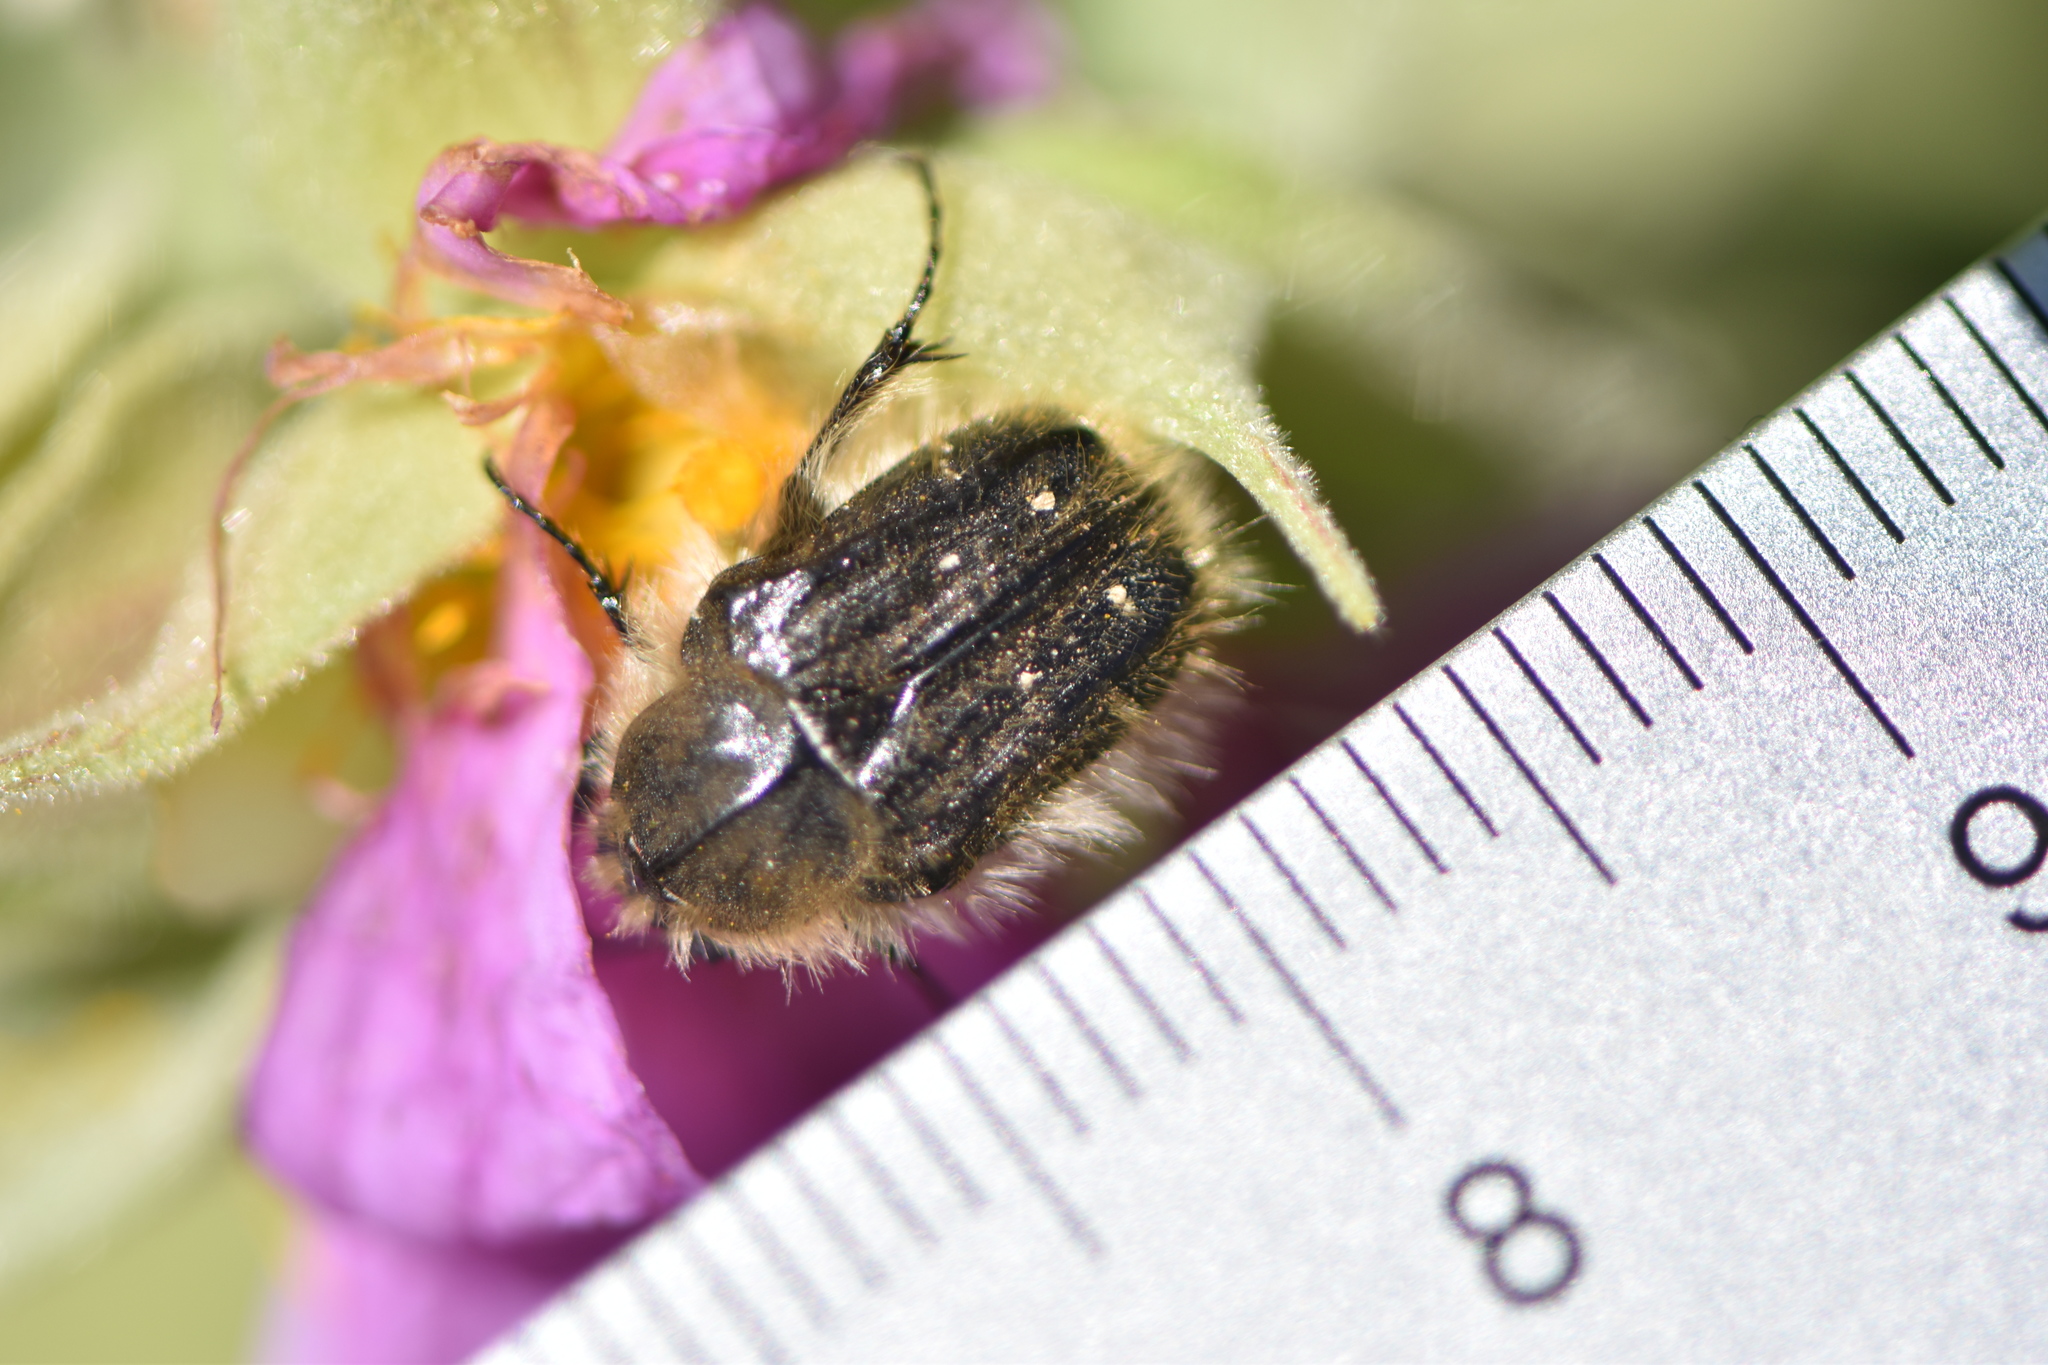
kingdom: Animalia
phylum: Arthropoda
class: Insecta
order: Coleoptera
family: Scarabaeidae
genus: Tropinota
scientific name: Tropinota squalida
